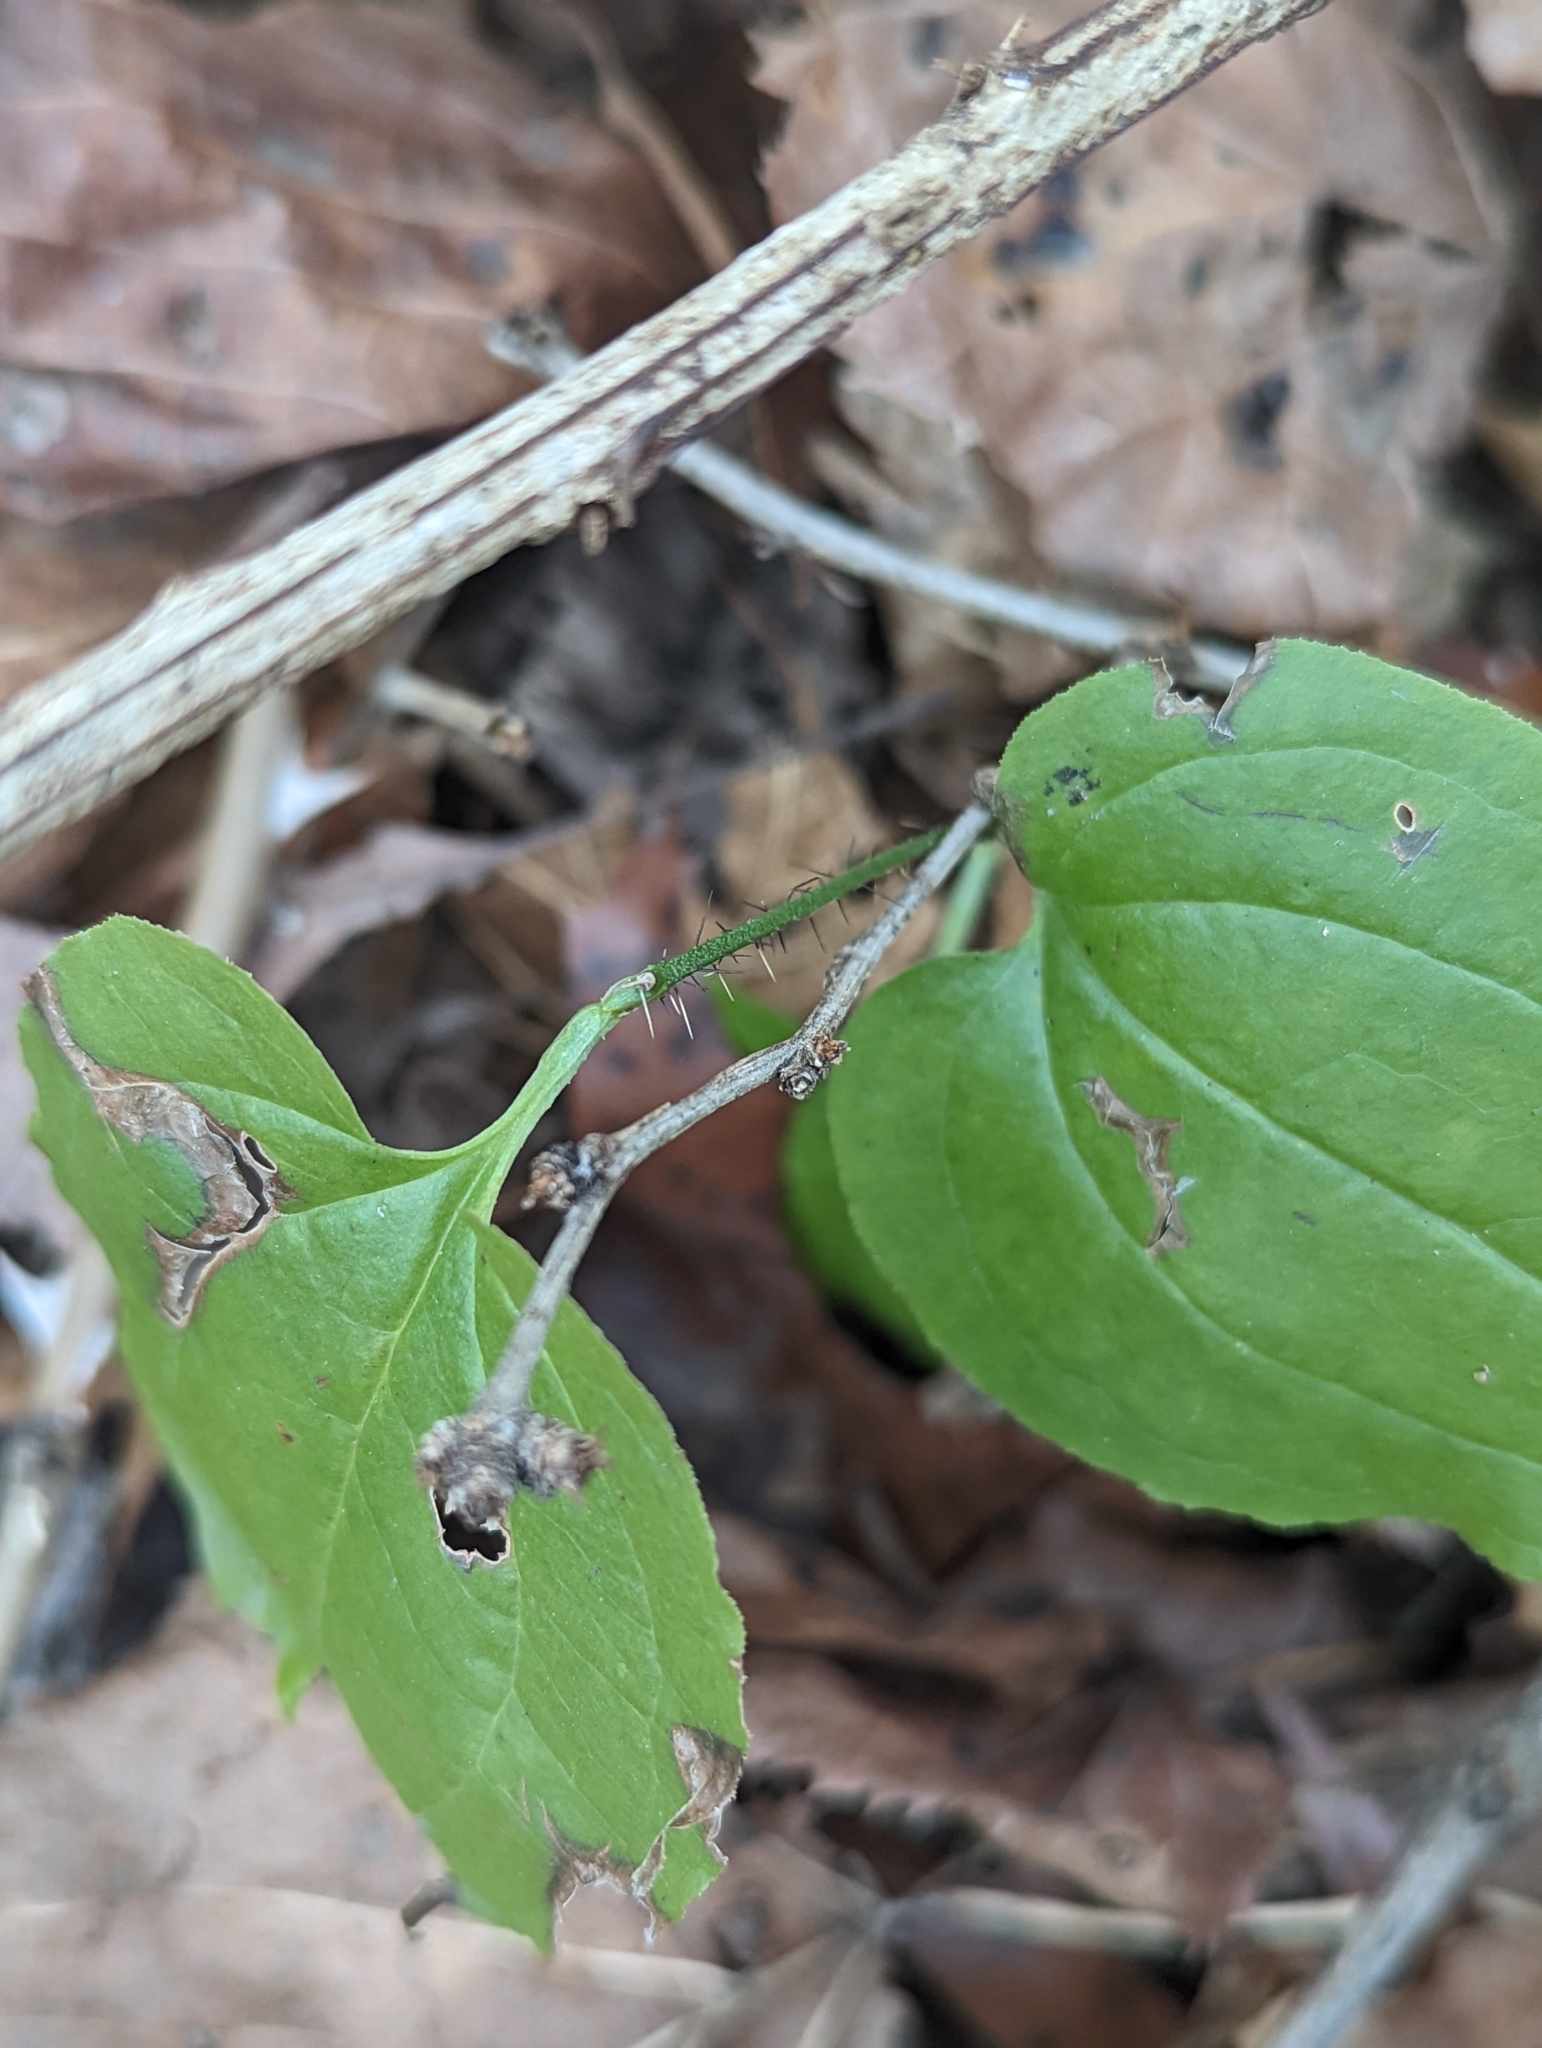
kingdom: Plantae
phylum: Tracheophyta
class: Liliopsida
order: Liliales
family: Smilacaceae
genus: Smilax
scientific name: Smilax tamnoides
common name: Hellfetter
